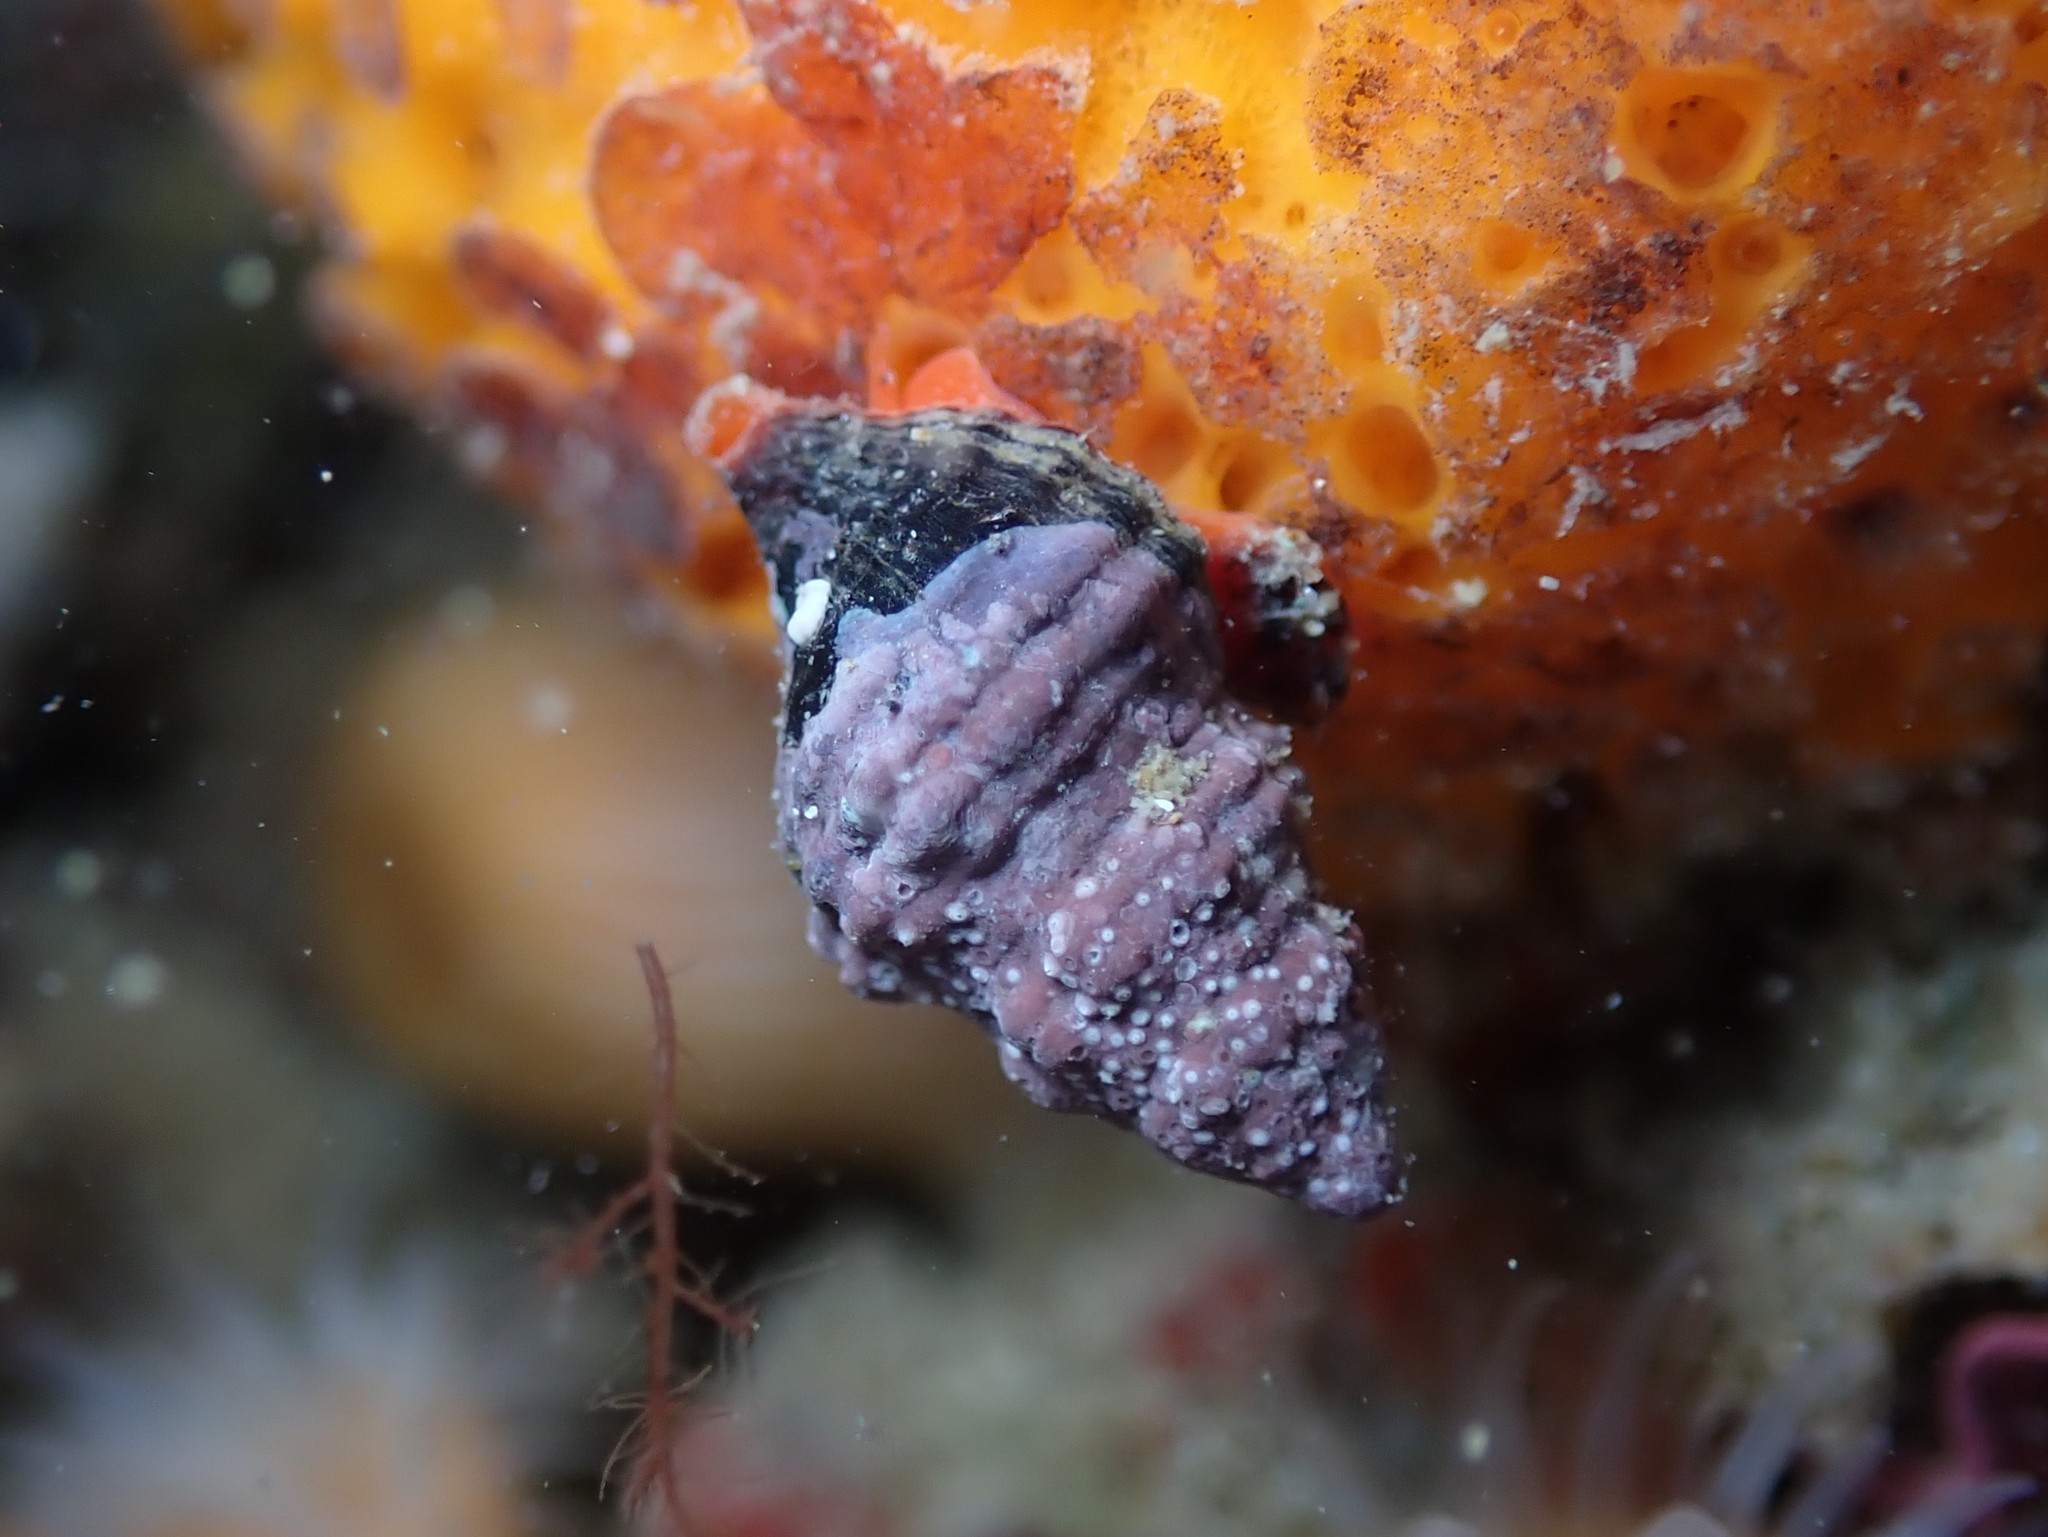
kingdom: Animalia
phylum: Mollusca
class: Gastropoda
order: Neogastropoda
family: Fasciolariidae
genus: Taron
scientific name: Taron dubius
